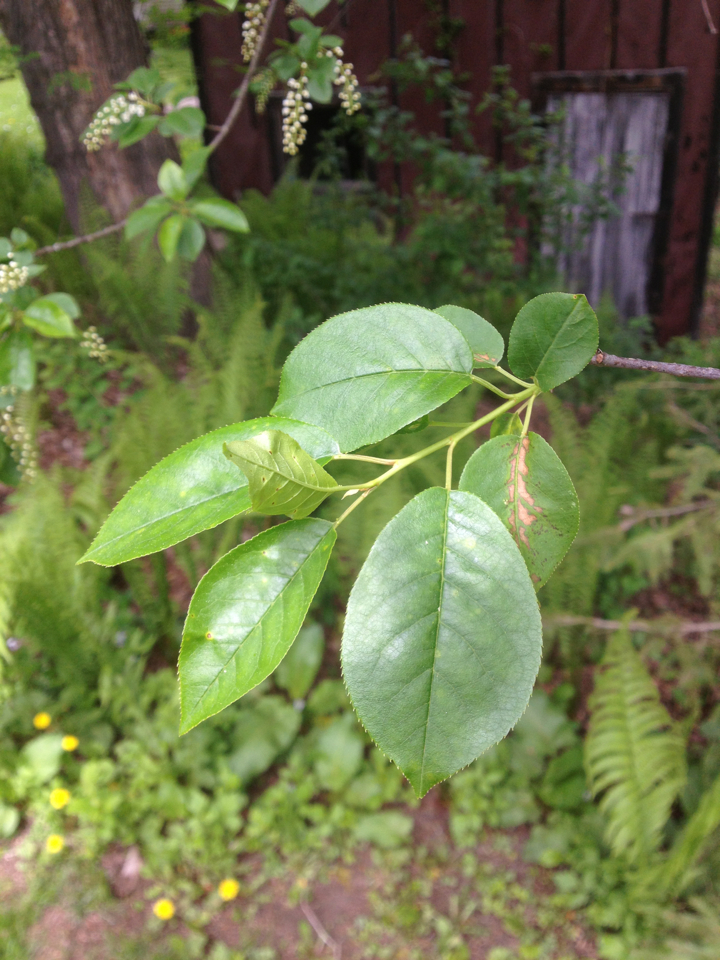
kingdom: Plantae
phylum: Tracheophyta
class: Magnoliopsida
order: Rosales
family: Rosaceae
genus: Prunus
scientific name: Prunus virginiana
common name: Chokecherry
